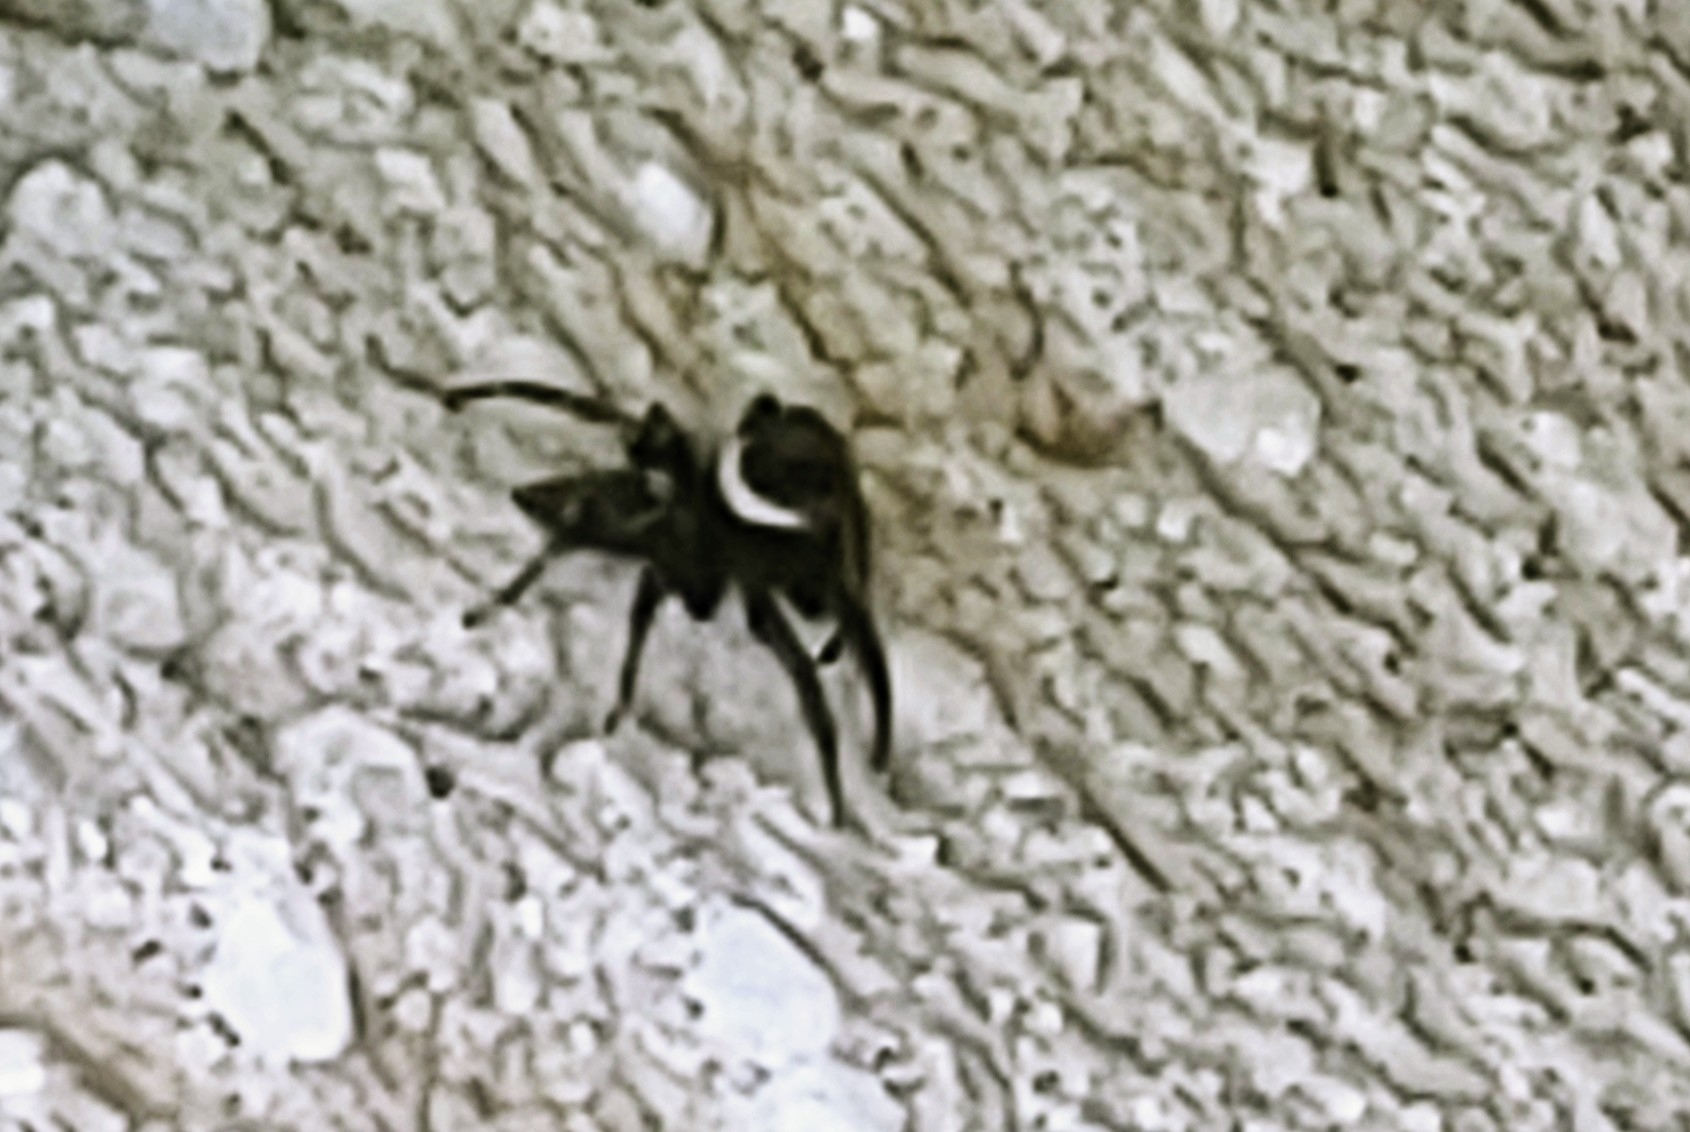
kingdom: Animalia
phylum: Arthropoda
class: Arachnida
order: Araneae
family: Salticidae
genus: Hasarius
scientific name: Hasarius adansoni
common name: Jumping spider
